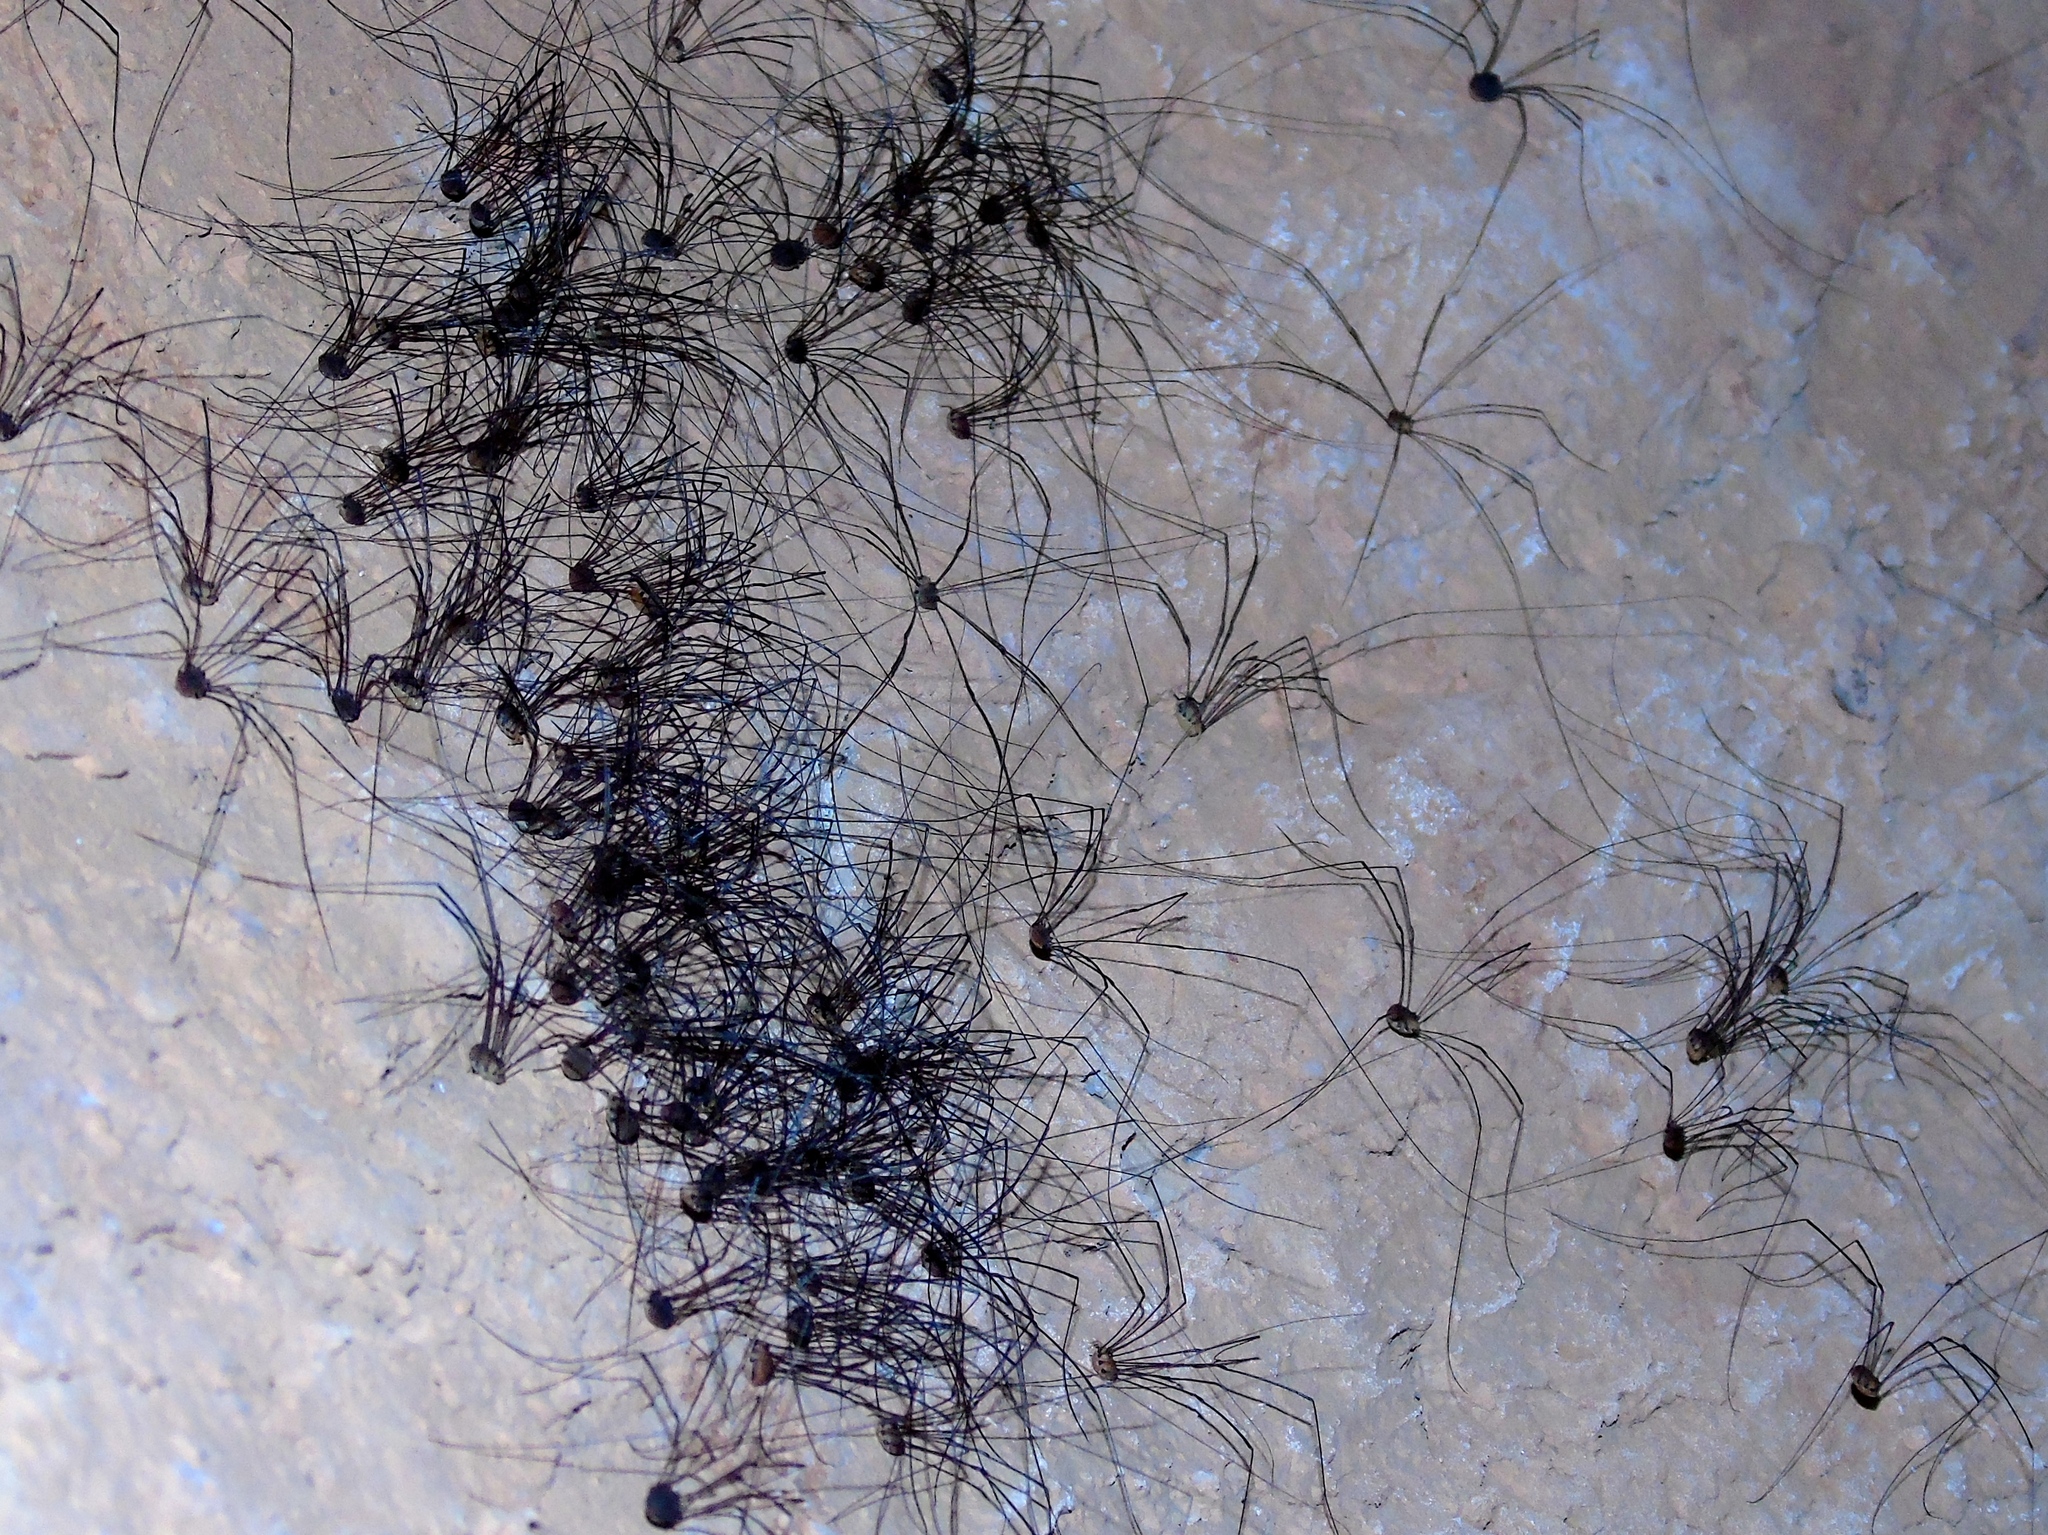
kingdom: Animalia
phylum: Arthropoda
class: Arachnida
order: Opiliones
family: Sclerosomatidae
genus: Leiobunum
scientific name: Leiobunum
